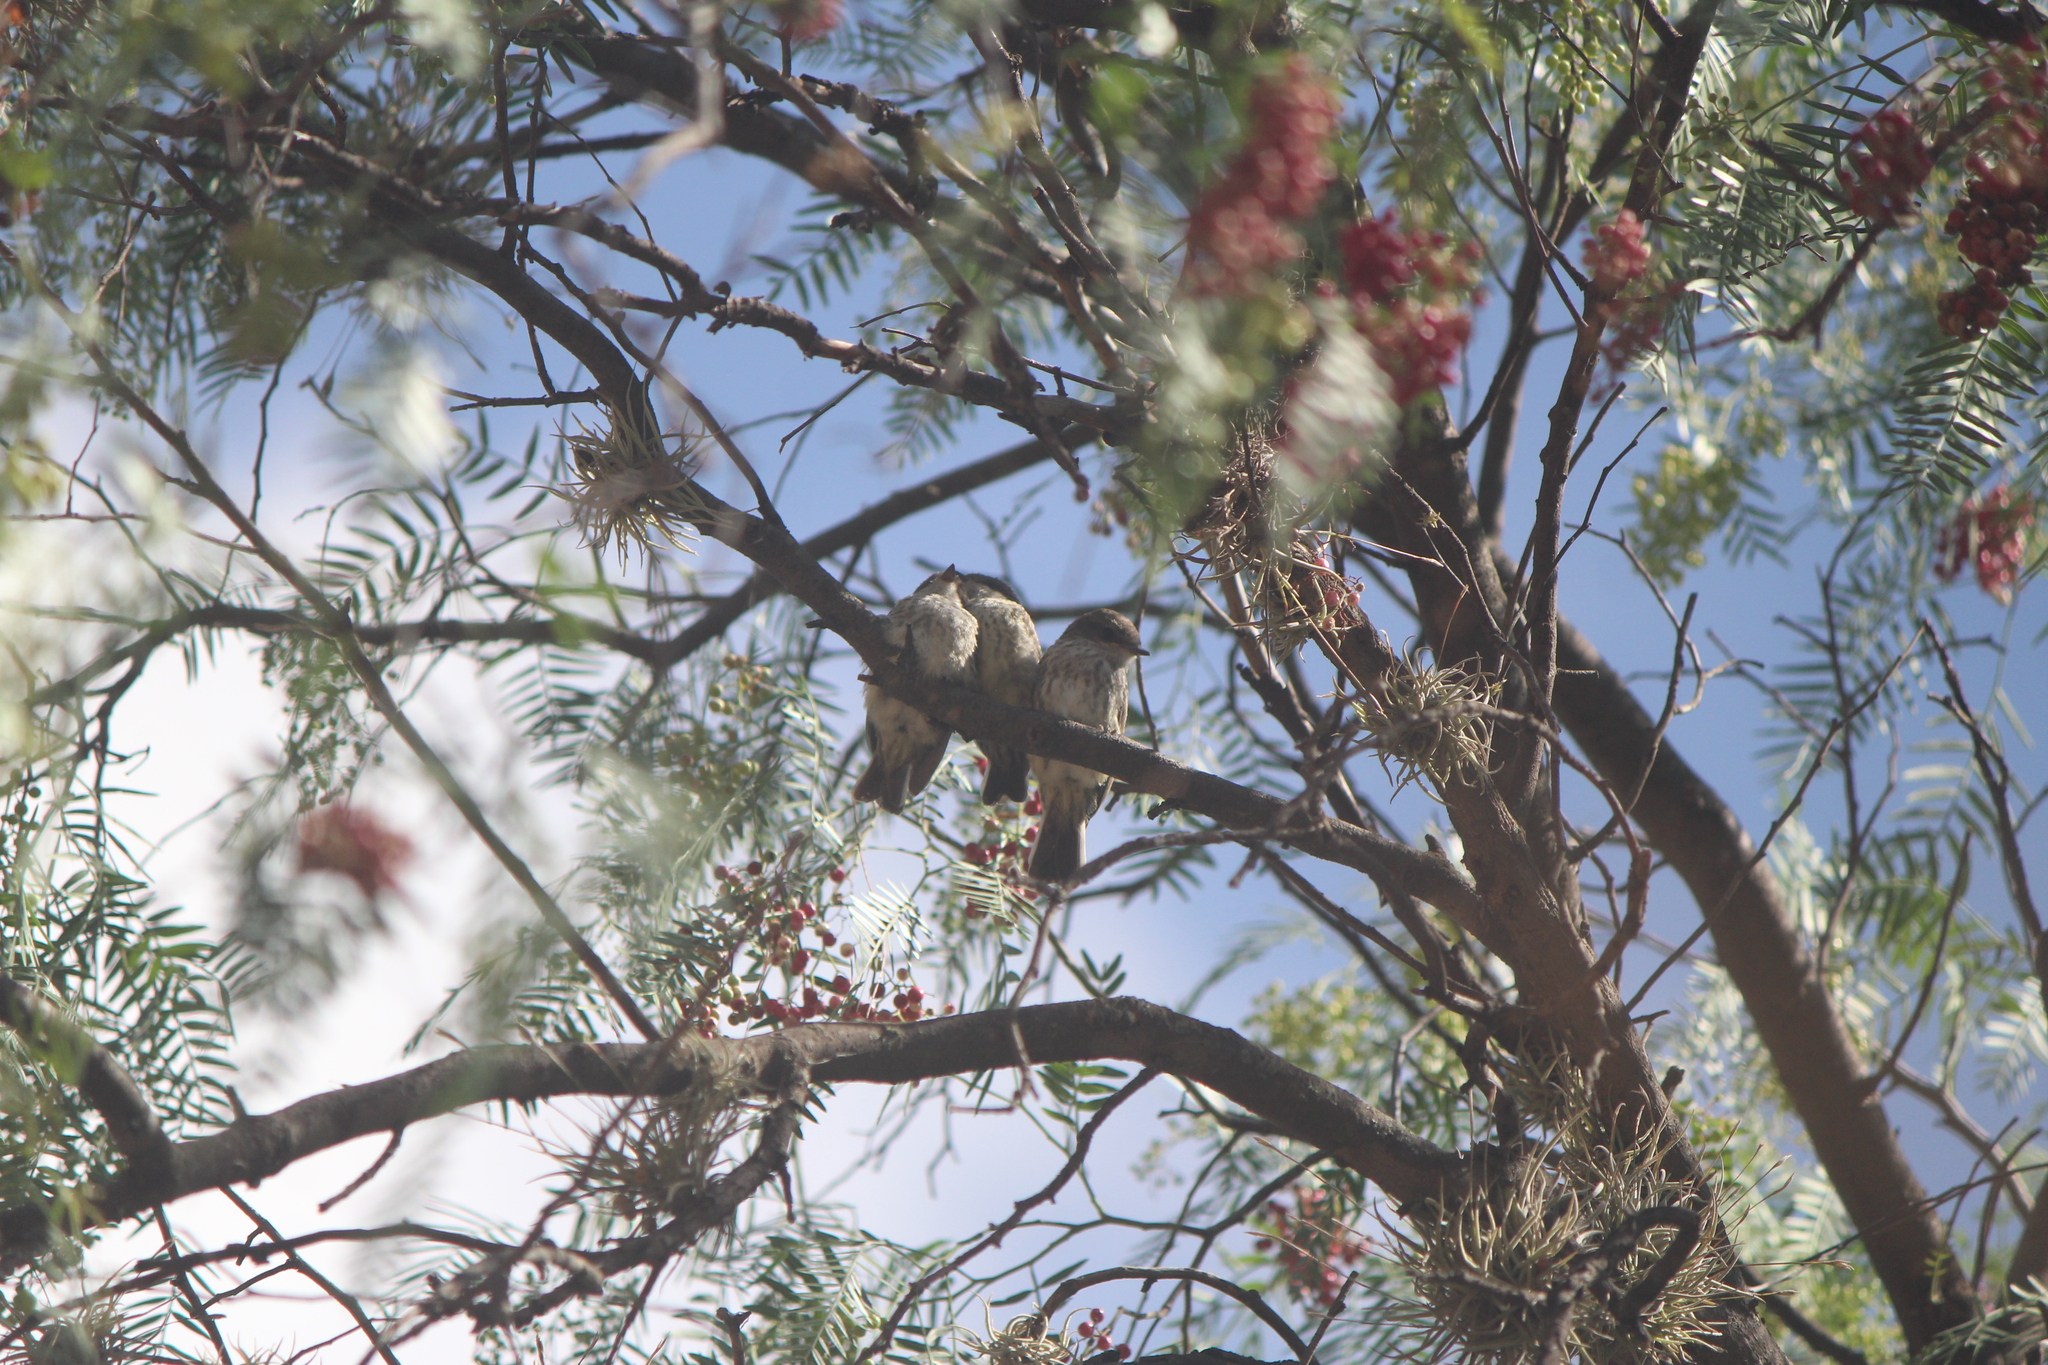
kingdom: Animalia
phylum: Chordata
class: Aves
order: Passeriformes
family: Tyrannidae
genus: Pyrocephalus
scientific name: Pyrocephalus rubinus
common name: Vermilion flycatcher
